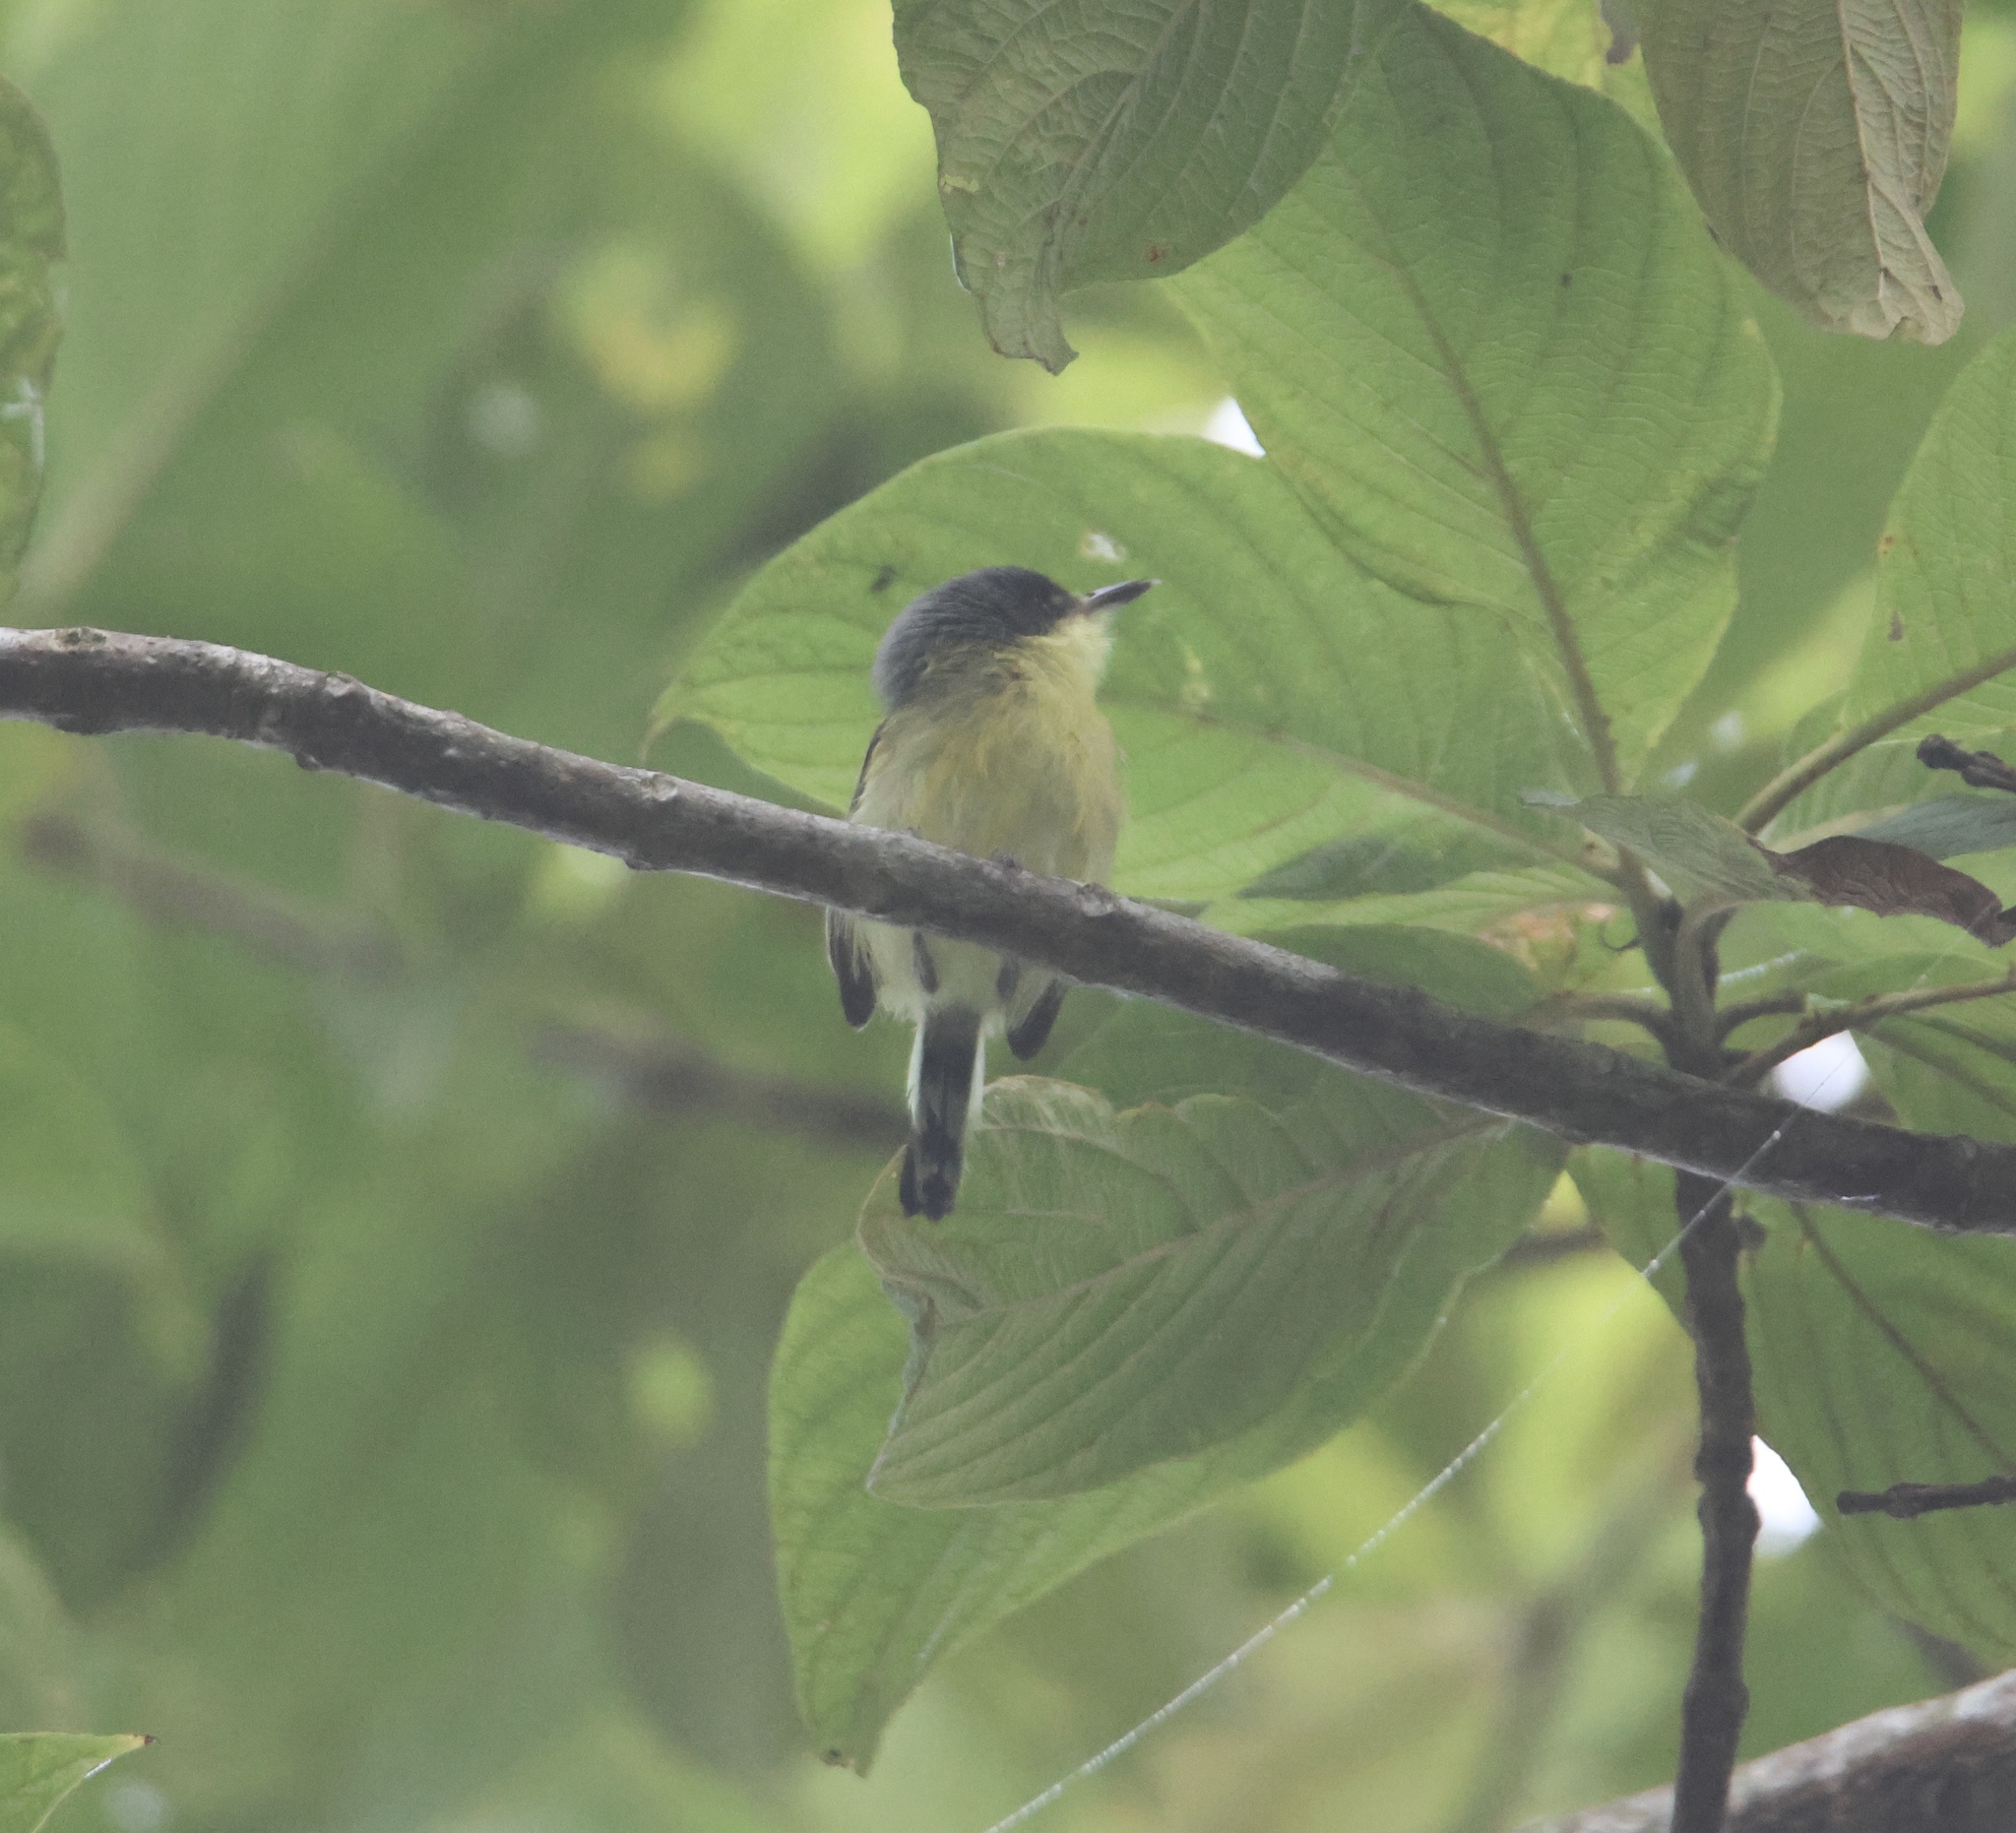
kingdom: Animalia
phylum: Chordata
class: Aves
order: Passeriformes
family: Tyrannidae
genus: Todirostrum
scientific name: Todirostrum cinereum
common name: Common tody-flycatcher
